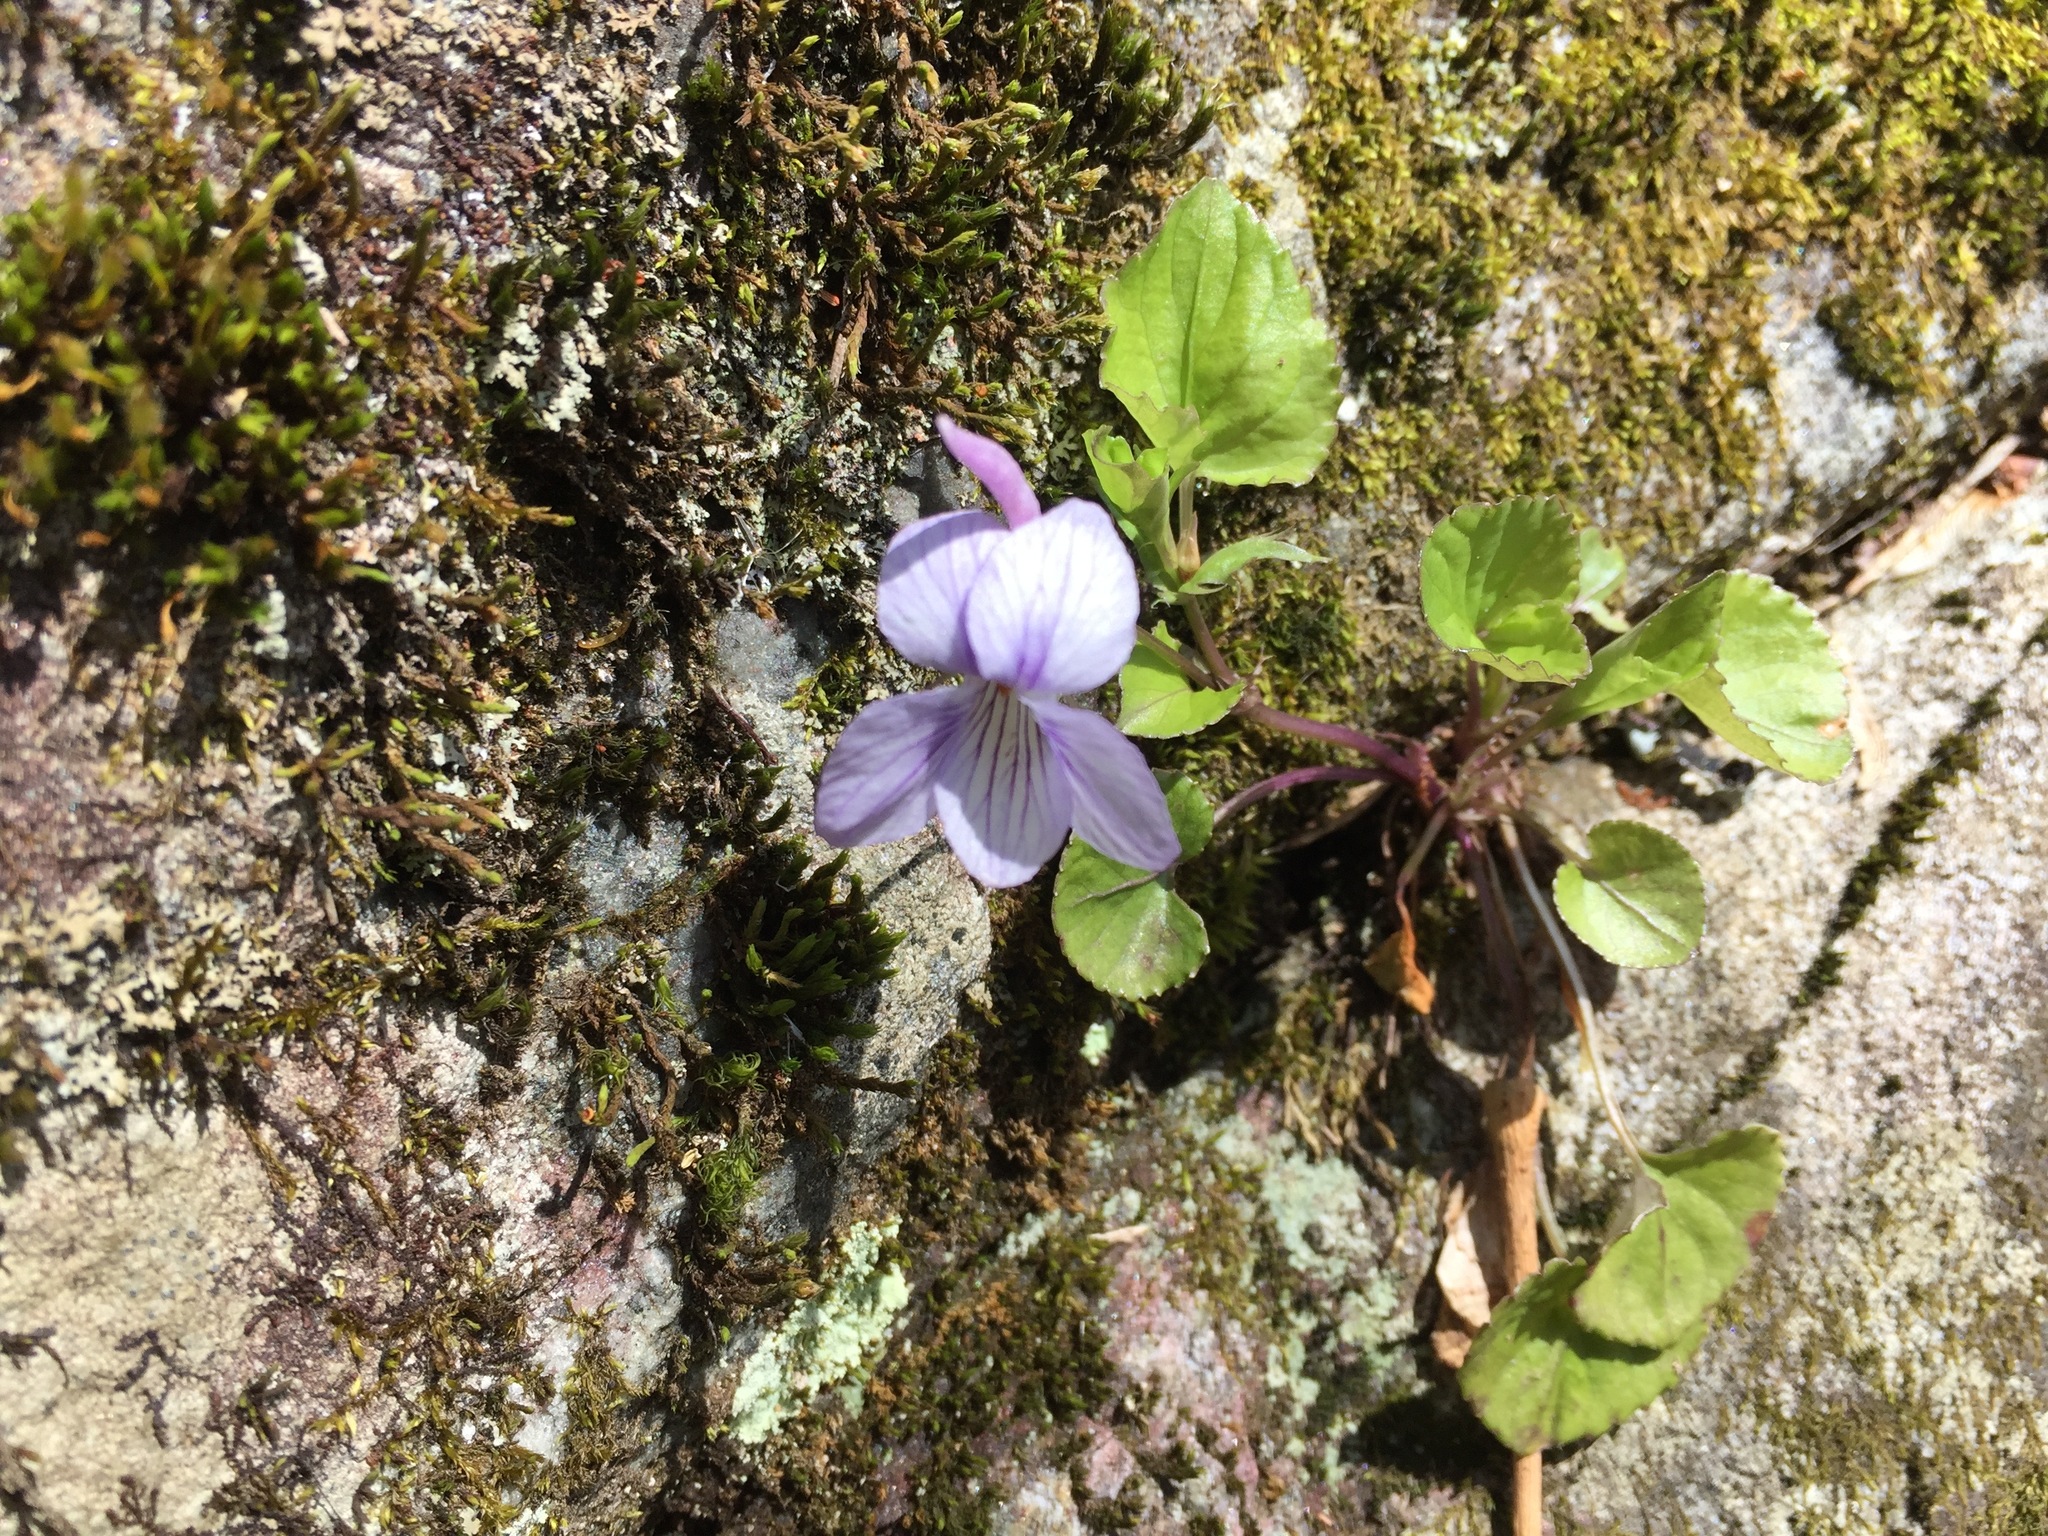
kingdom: Plantae
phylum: Tracheophyta
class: Magnoliopsida
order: Malpighiales
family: Violaceae
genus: Viola
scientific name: Viola rostrata
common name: Long-spur violet
